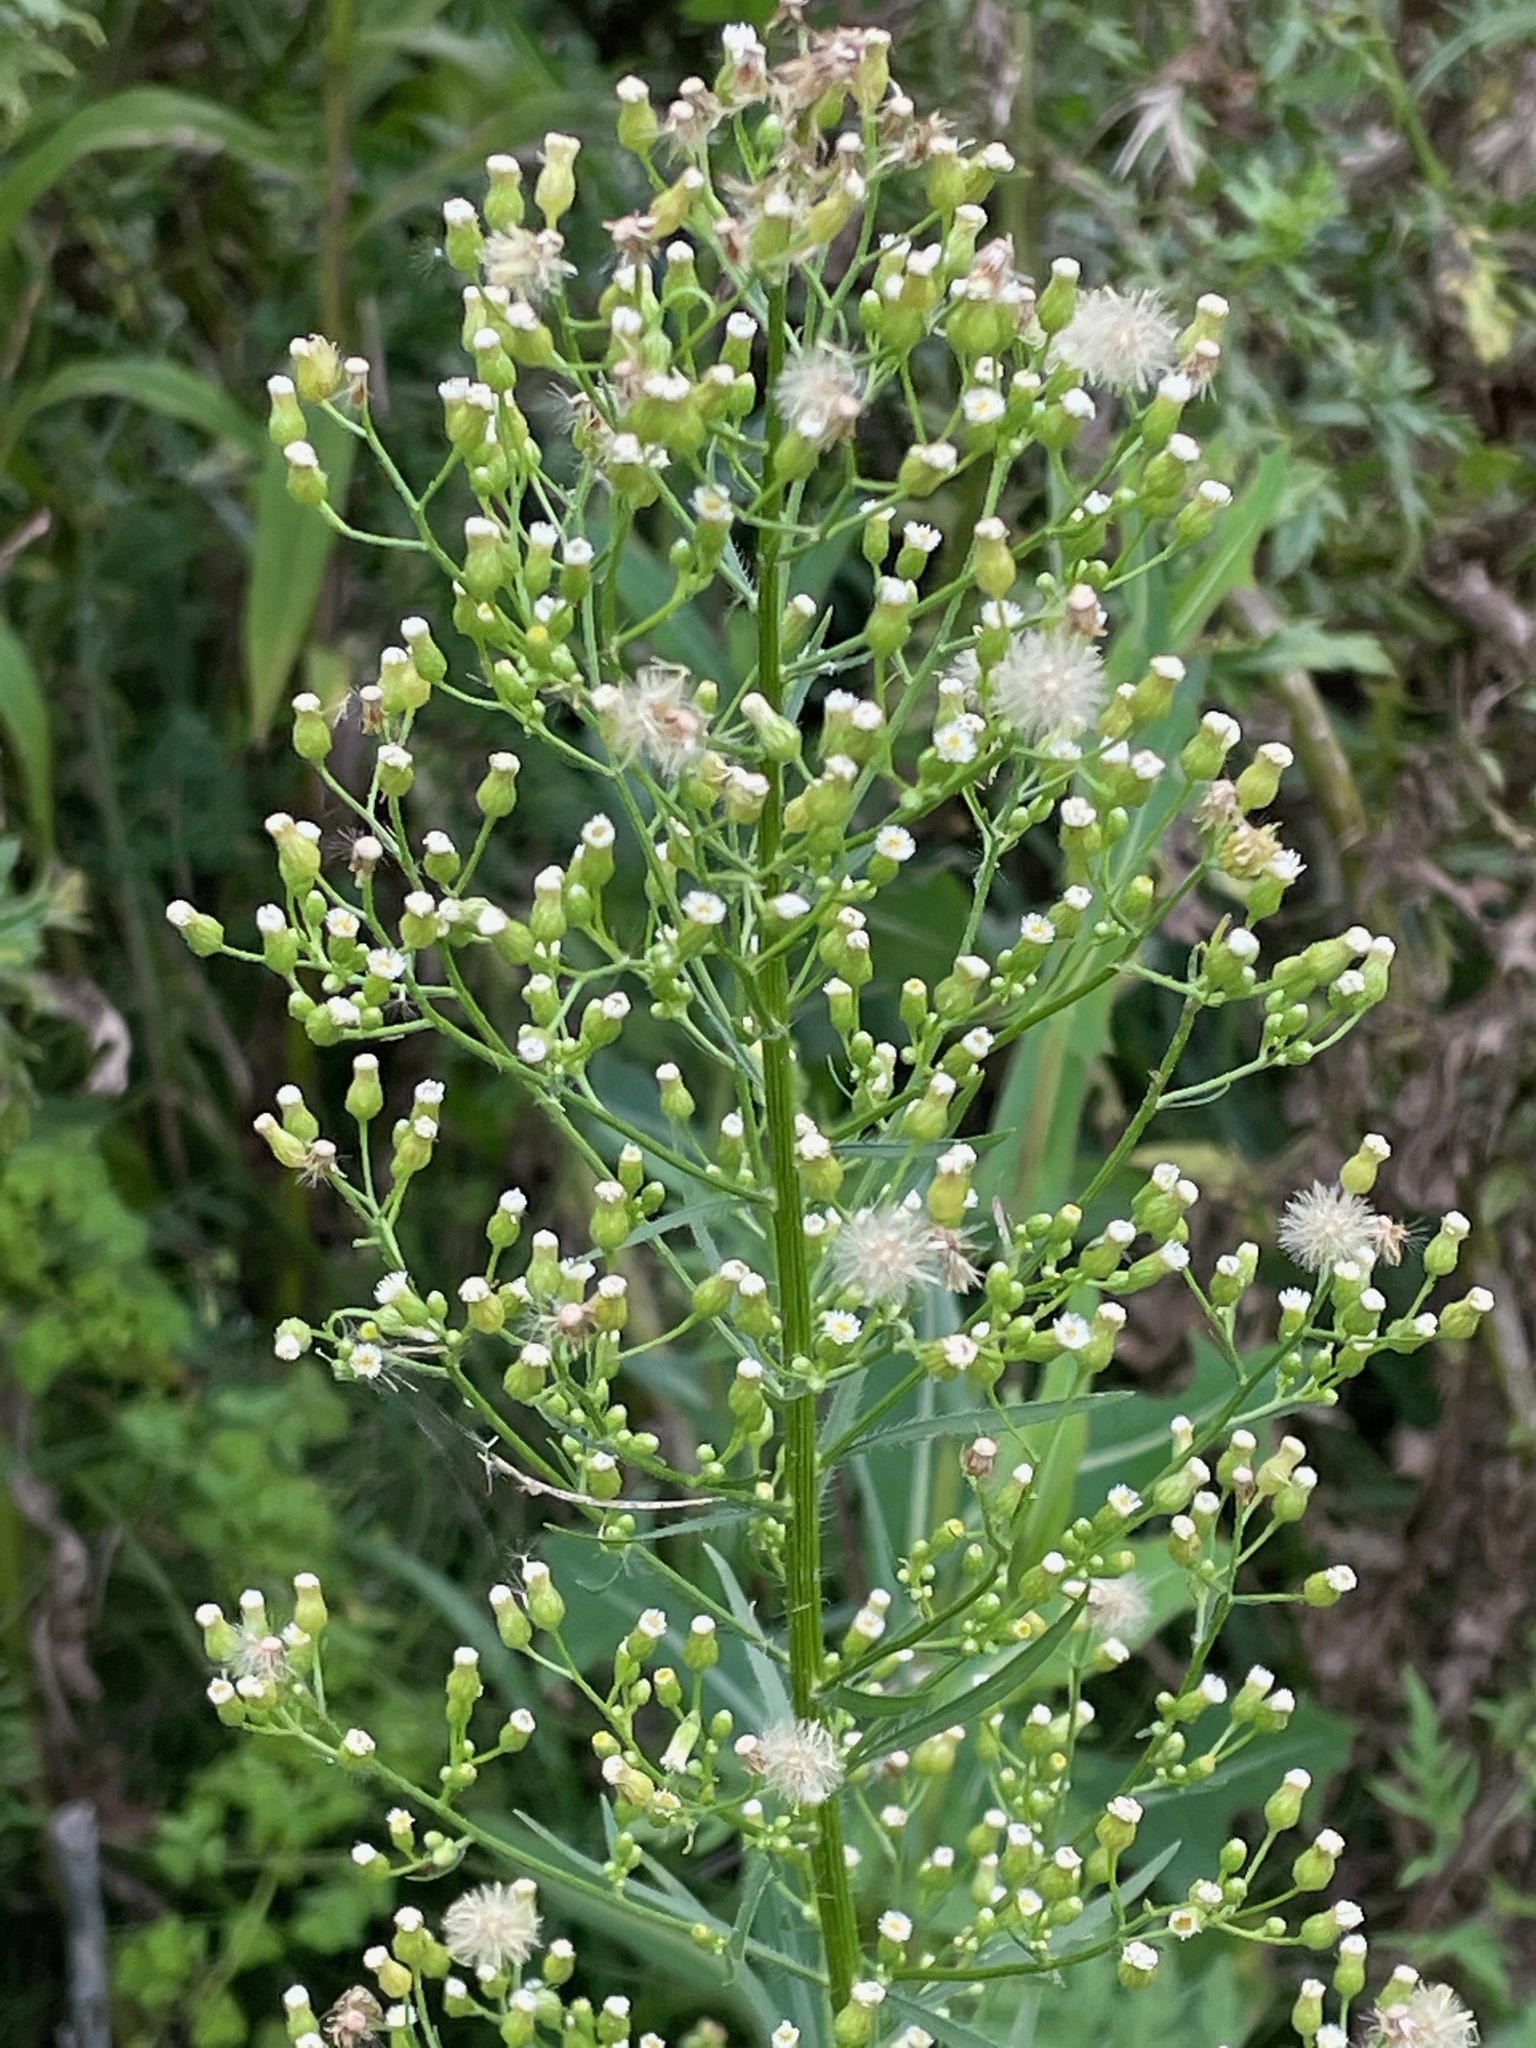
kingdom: Plantae
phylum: Tracheophyta
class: Magnoliopsida
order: Asterales
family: Asteraceae
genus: Erigeron
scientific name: Erigeron canadensis
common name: Canadian fleabane
